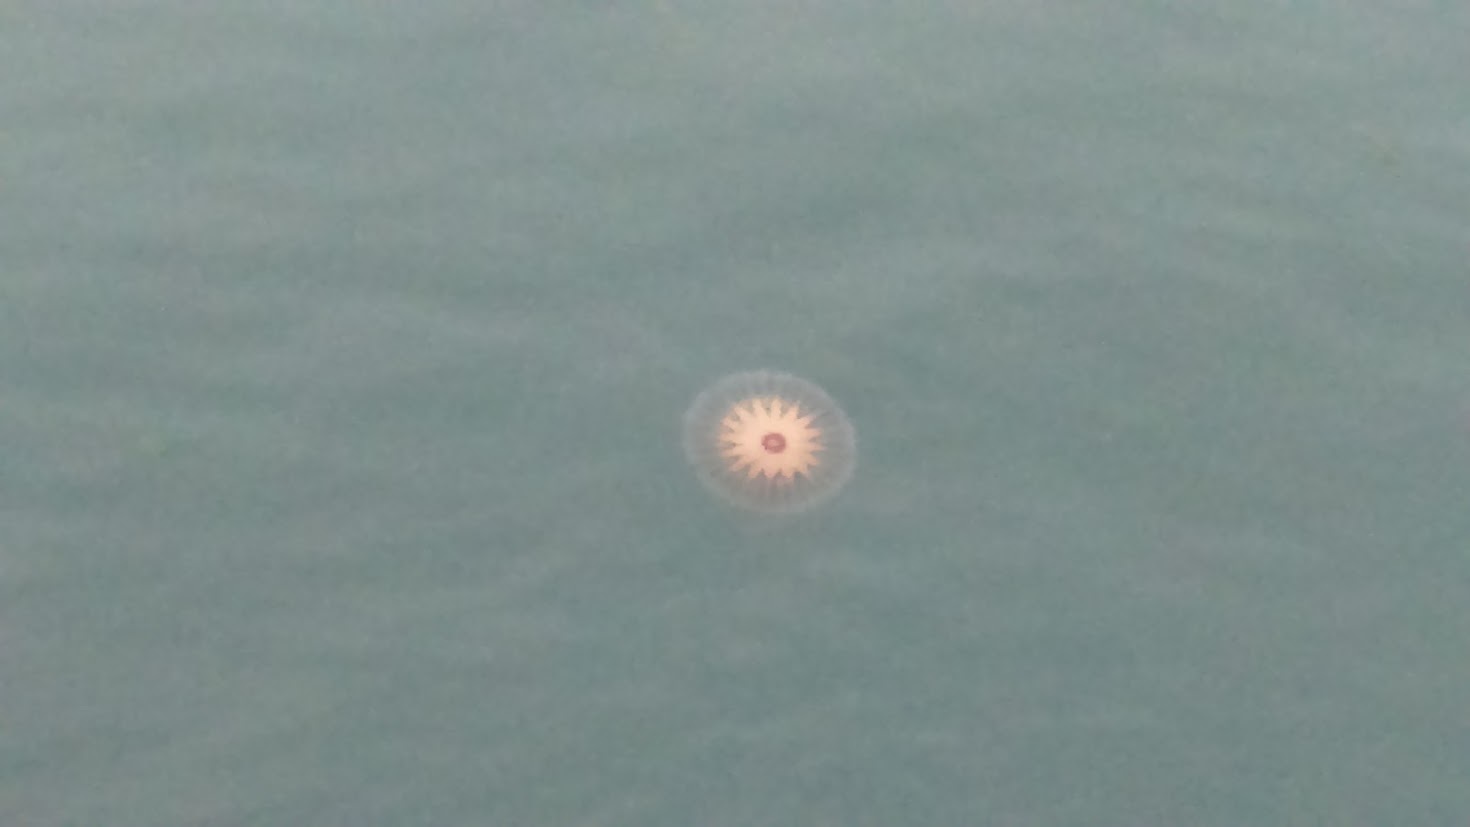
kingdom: Animalia
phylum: Cnidaria
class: Scyphozoa
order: Semaeostomeae
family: Pelagiidae
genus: Chrysaora
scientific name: Chrysaora hysoscella
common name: Compass jellyfish
